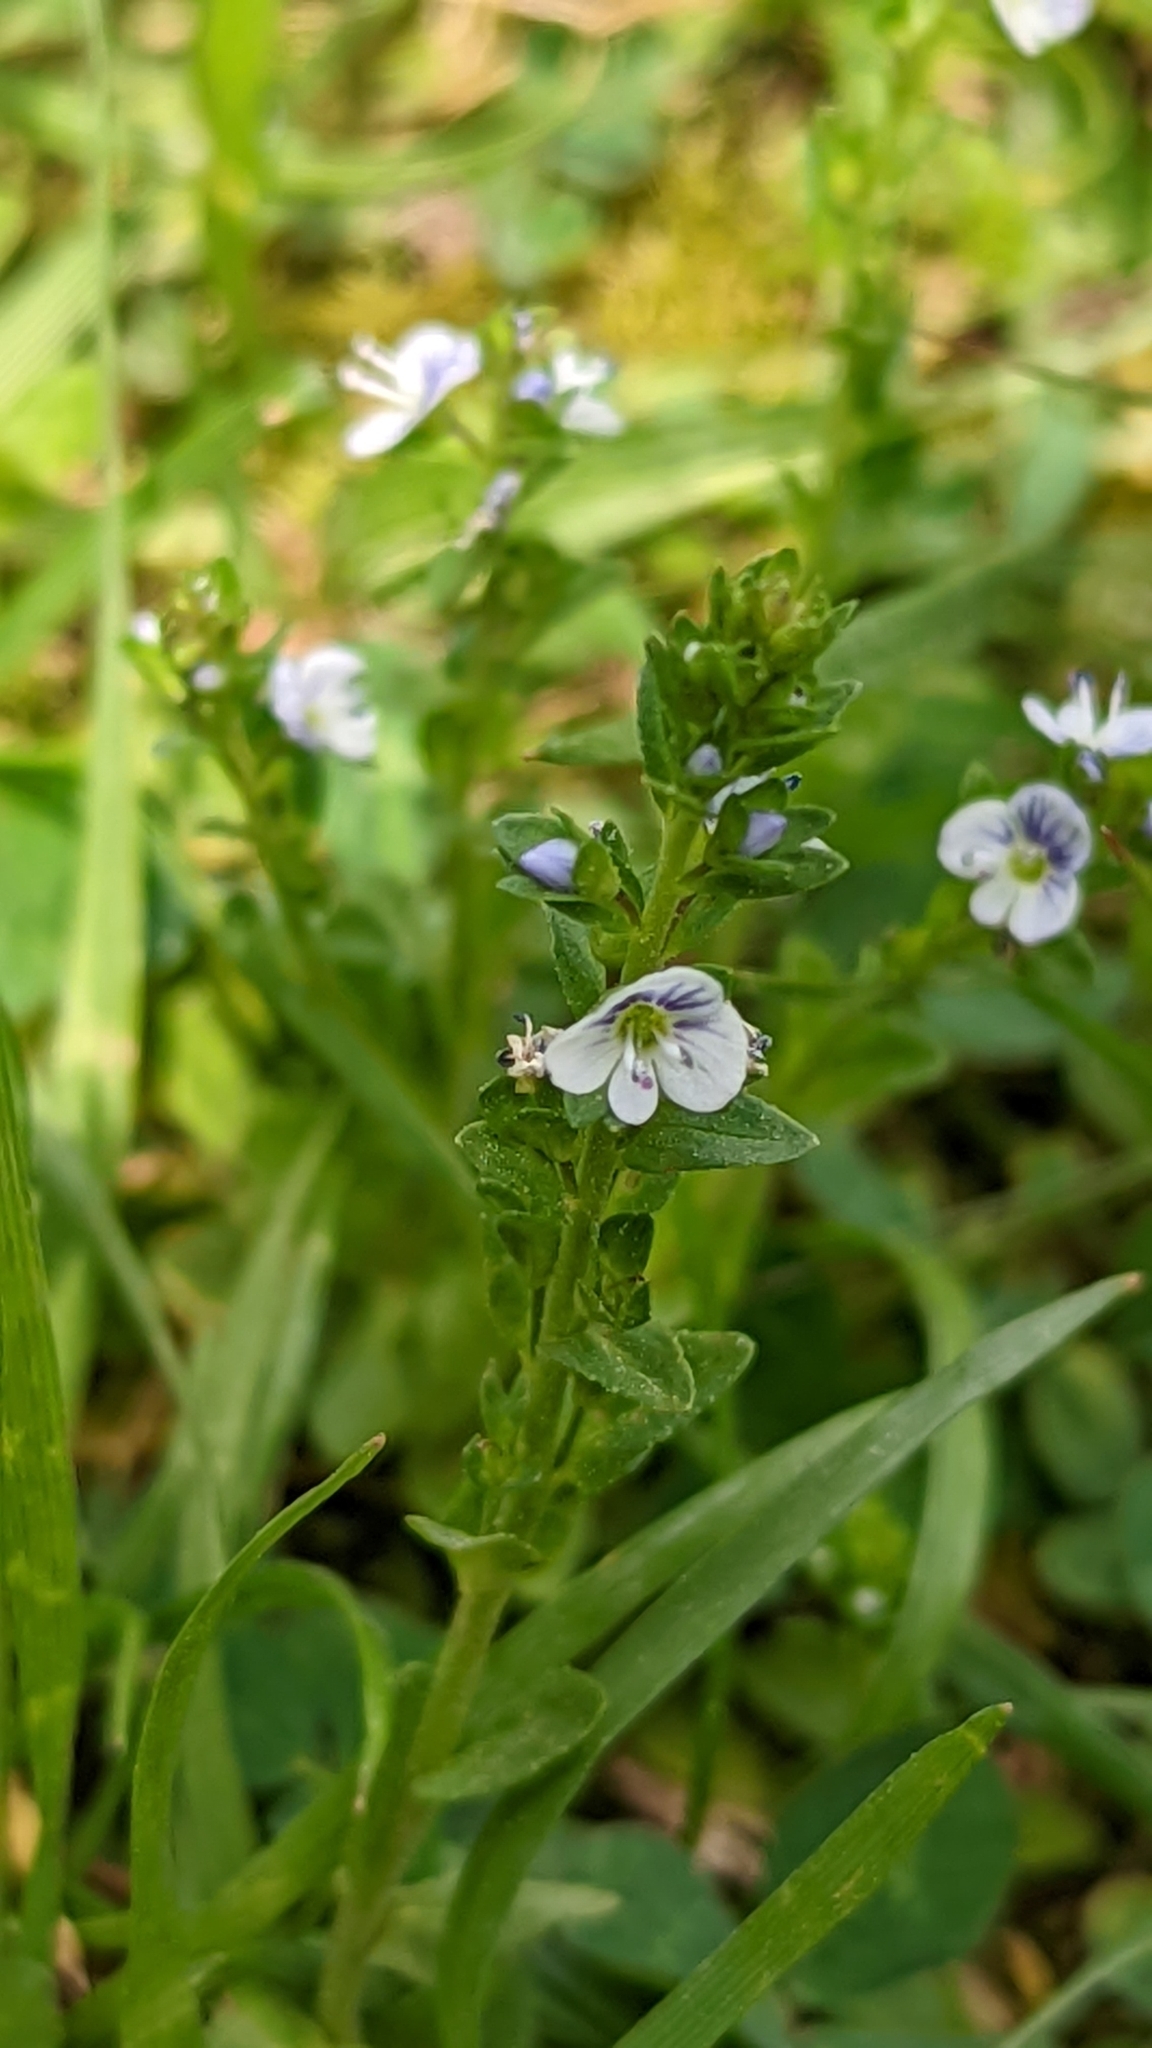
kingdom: Plantae
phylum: Tracheophyta
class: Magnoliopsida
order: Lamiales
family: Plantaginaceae
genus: Veronica
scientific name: Veronica serpyllifolia
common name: Thyme-leaved speedwell
